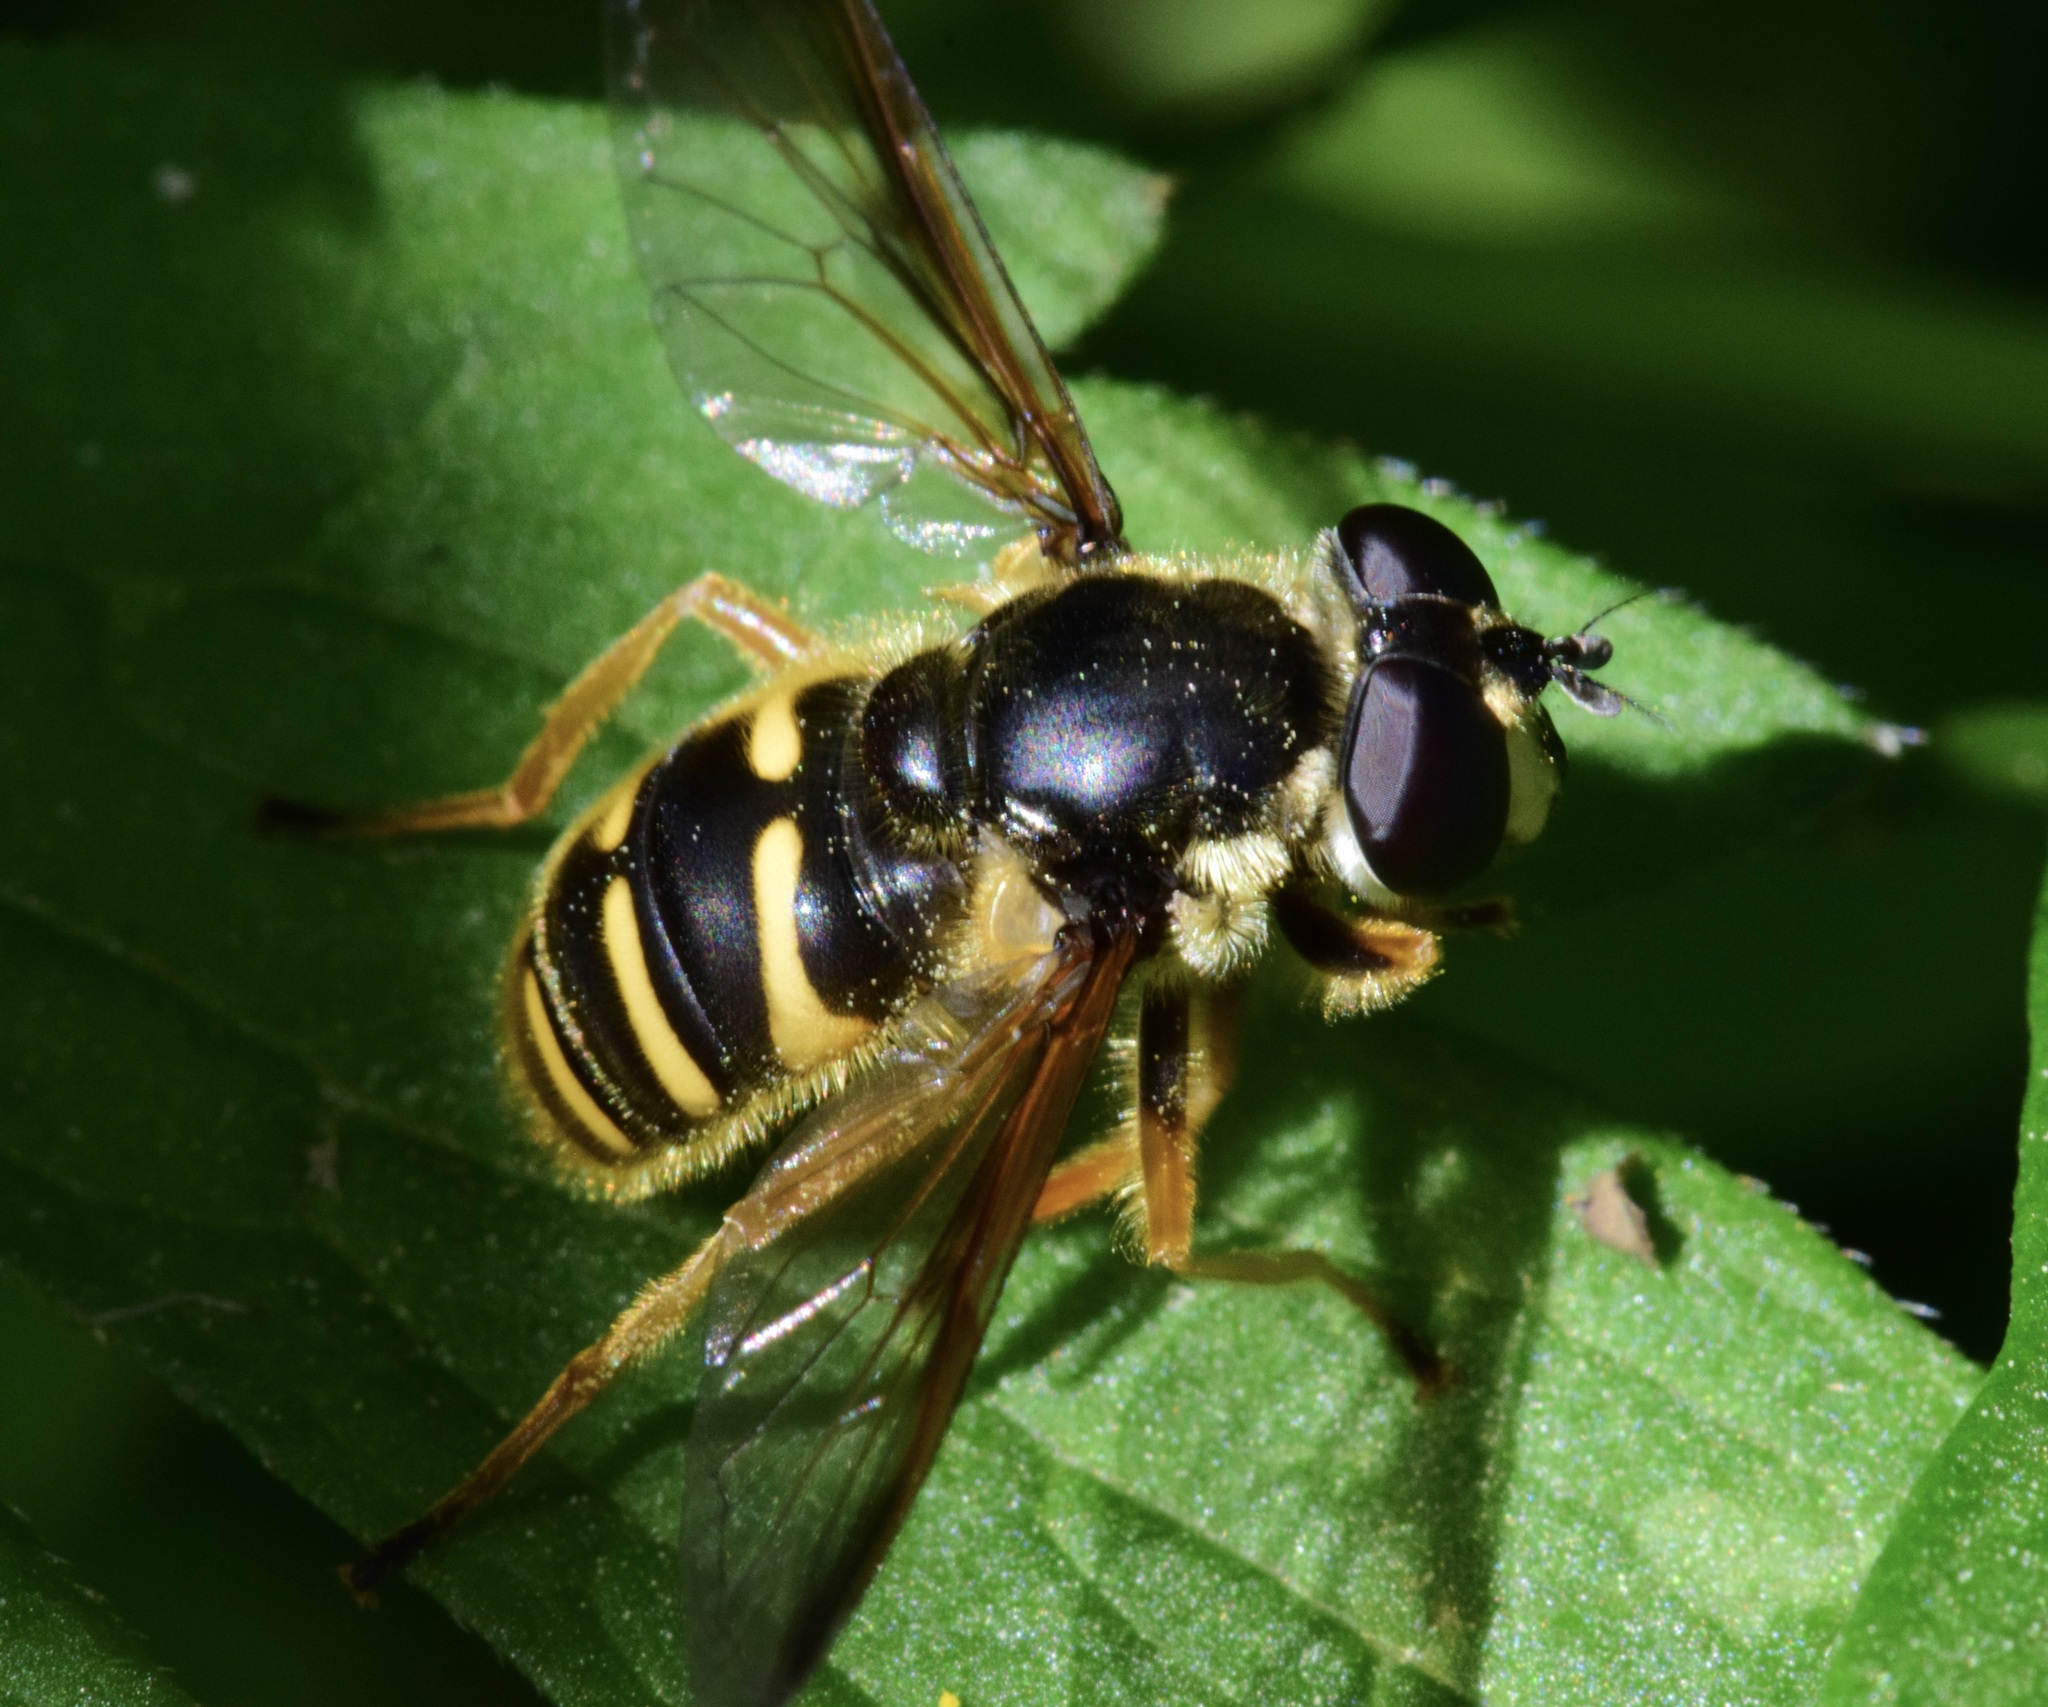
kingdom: Animalia
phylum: Arthropoda
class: Insecta
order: Diptera
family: Syrphidae
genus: Sericomyia
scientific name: Sericomyia chrysotoxoides
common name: Oblique-banded pond fly
